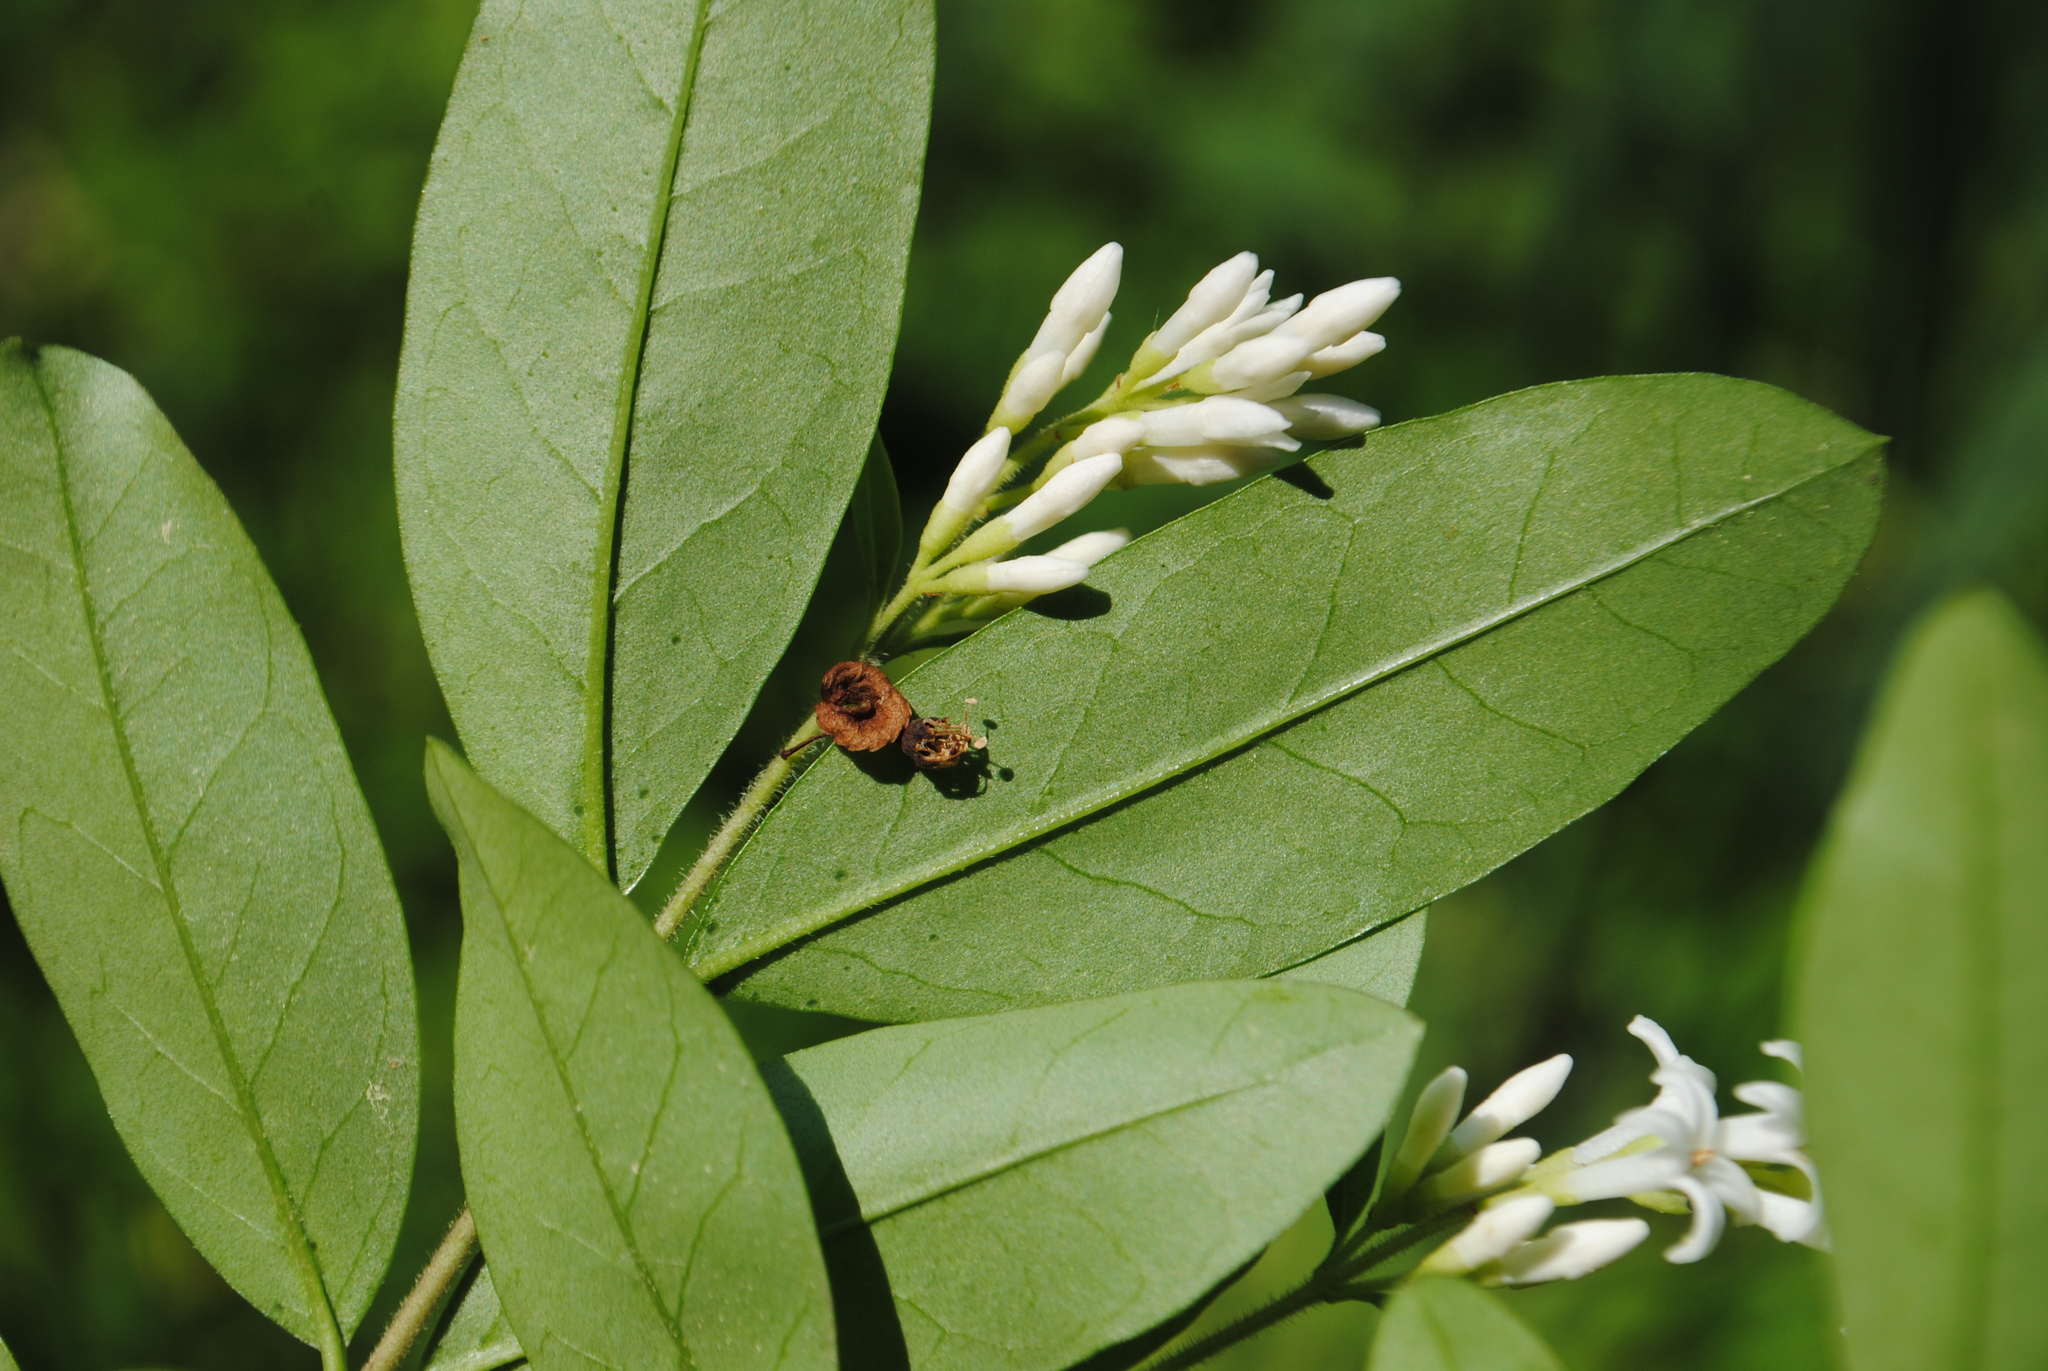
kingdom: Plantae
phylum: Tracheophyta
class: Magnoliopsida
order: Lamiales
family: Oleaceae
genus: Ligustrum
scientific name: Ligustrum obtusifolium
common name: Border privet
